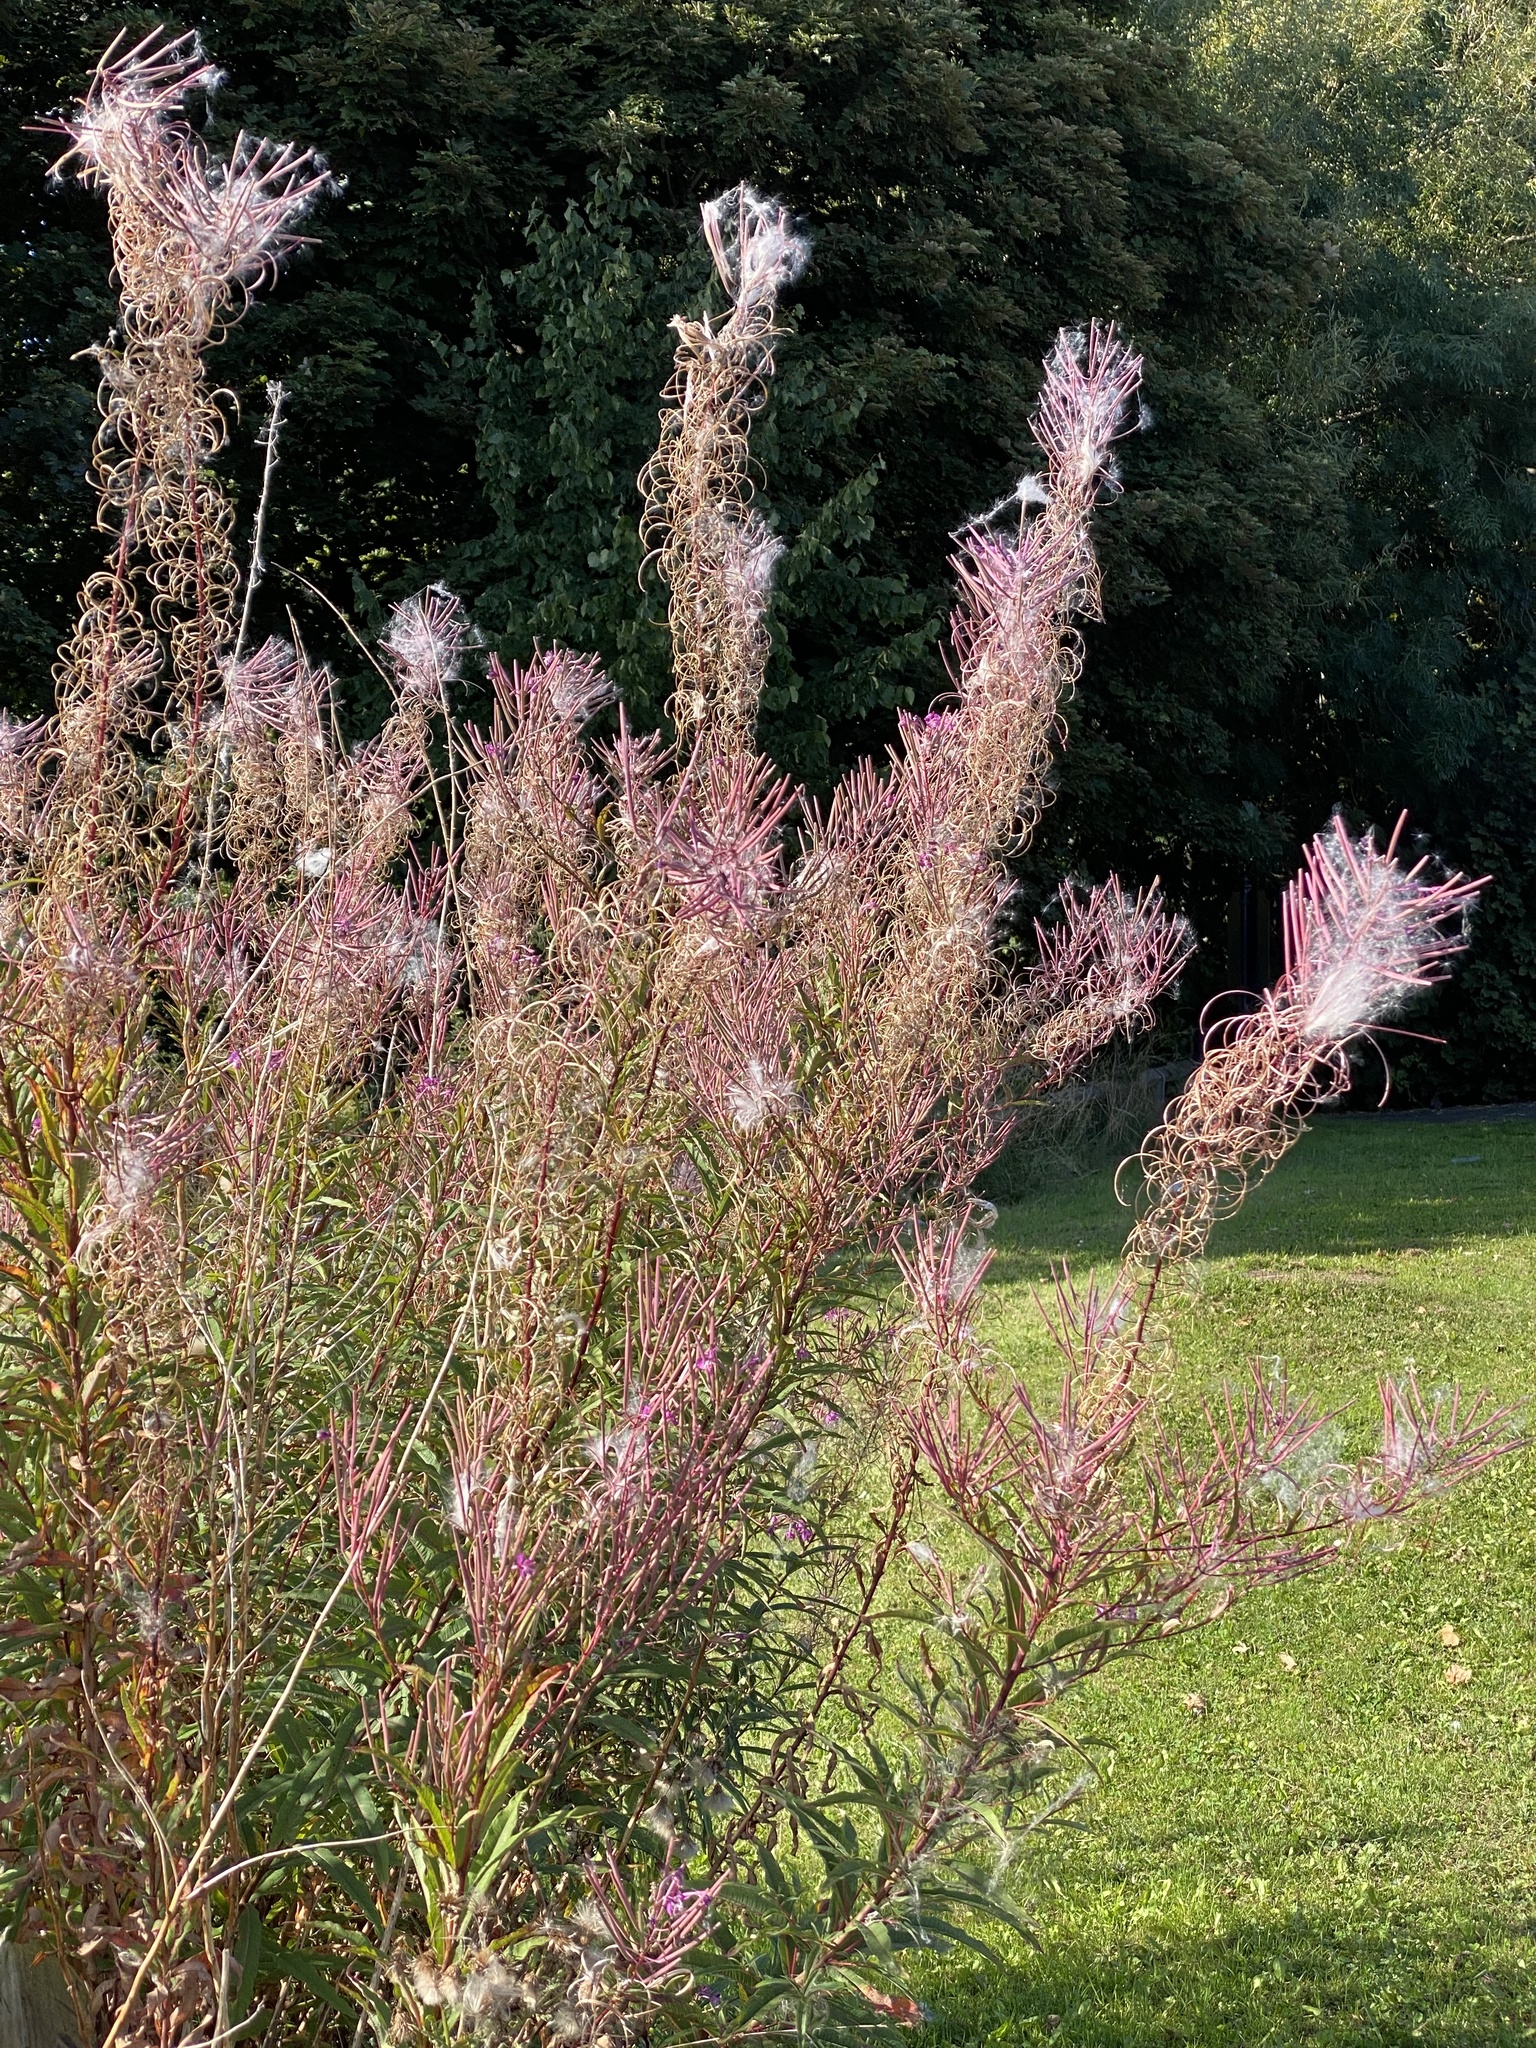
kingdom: Plantae
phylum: Tracheophyta
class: Magnoliopsida
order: Myrtales
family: Onagraceae
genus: Chamaenerion
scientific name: Chamaenerion angustifolium
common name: Fireweed
